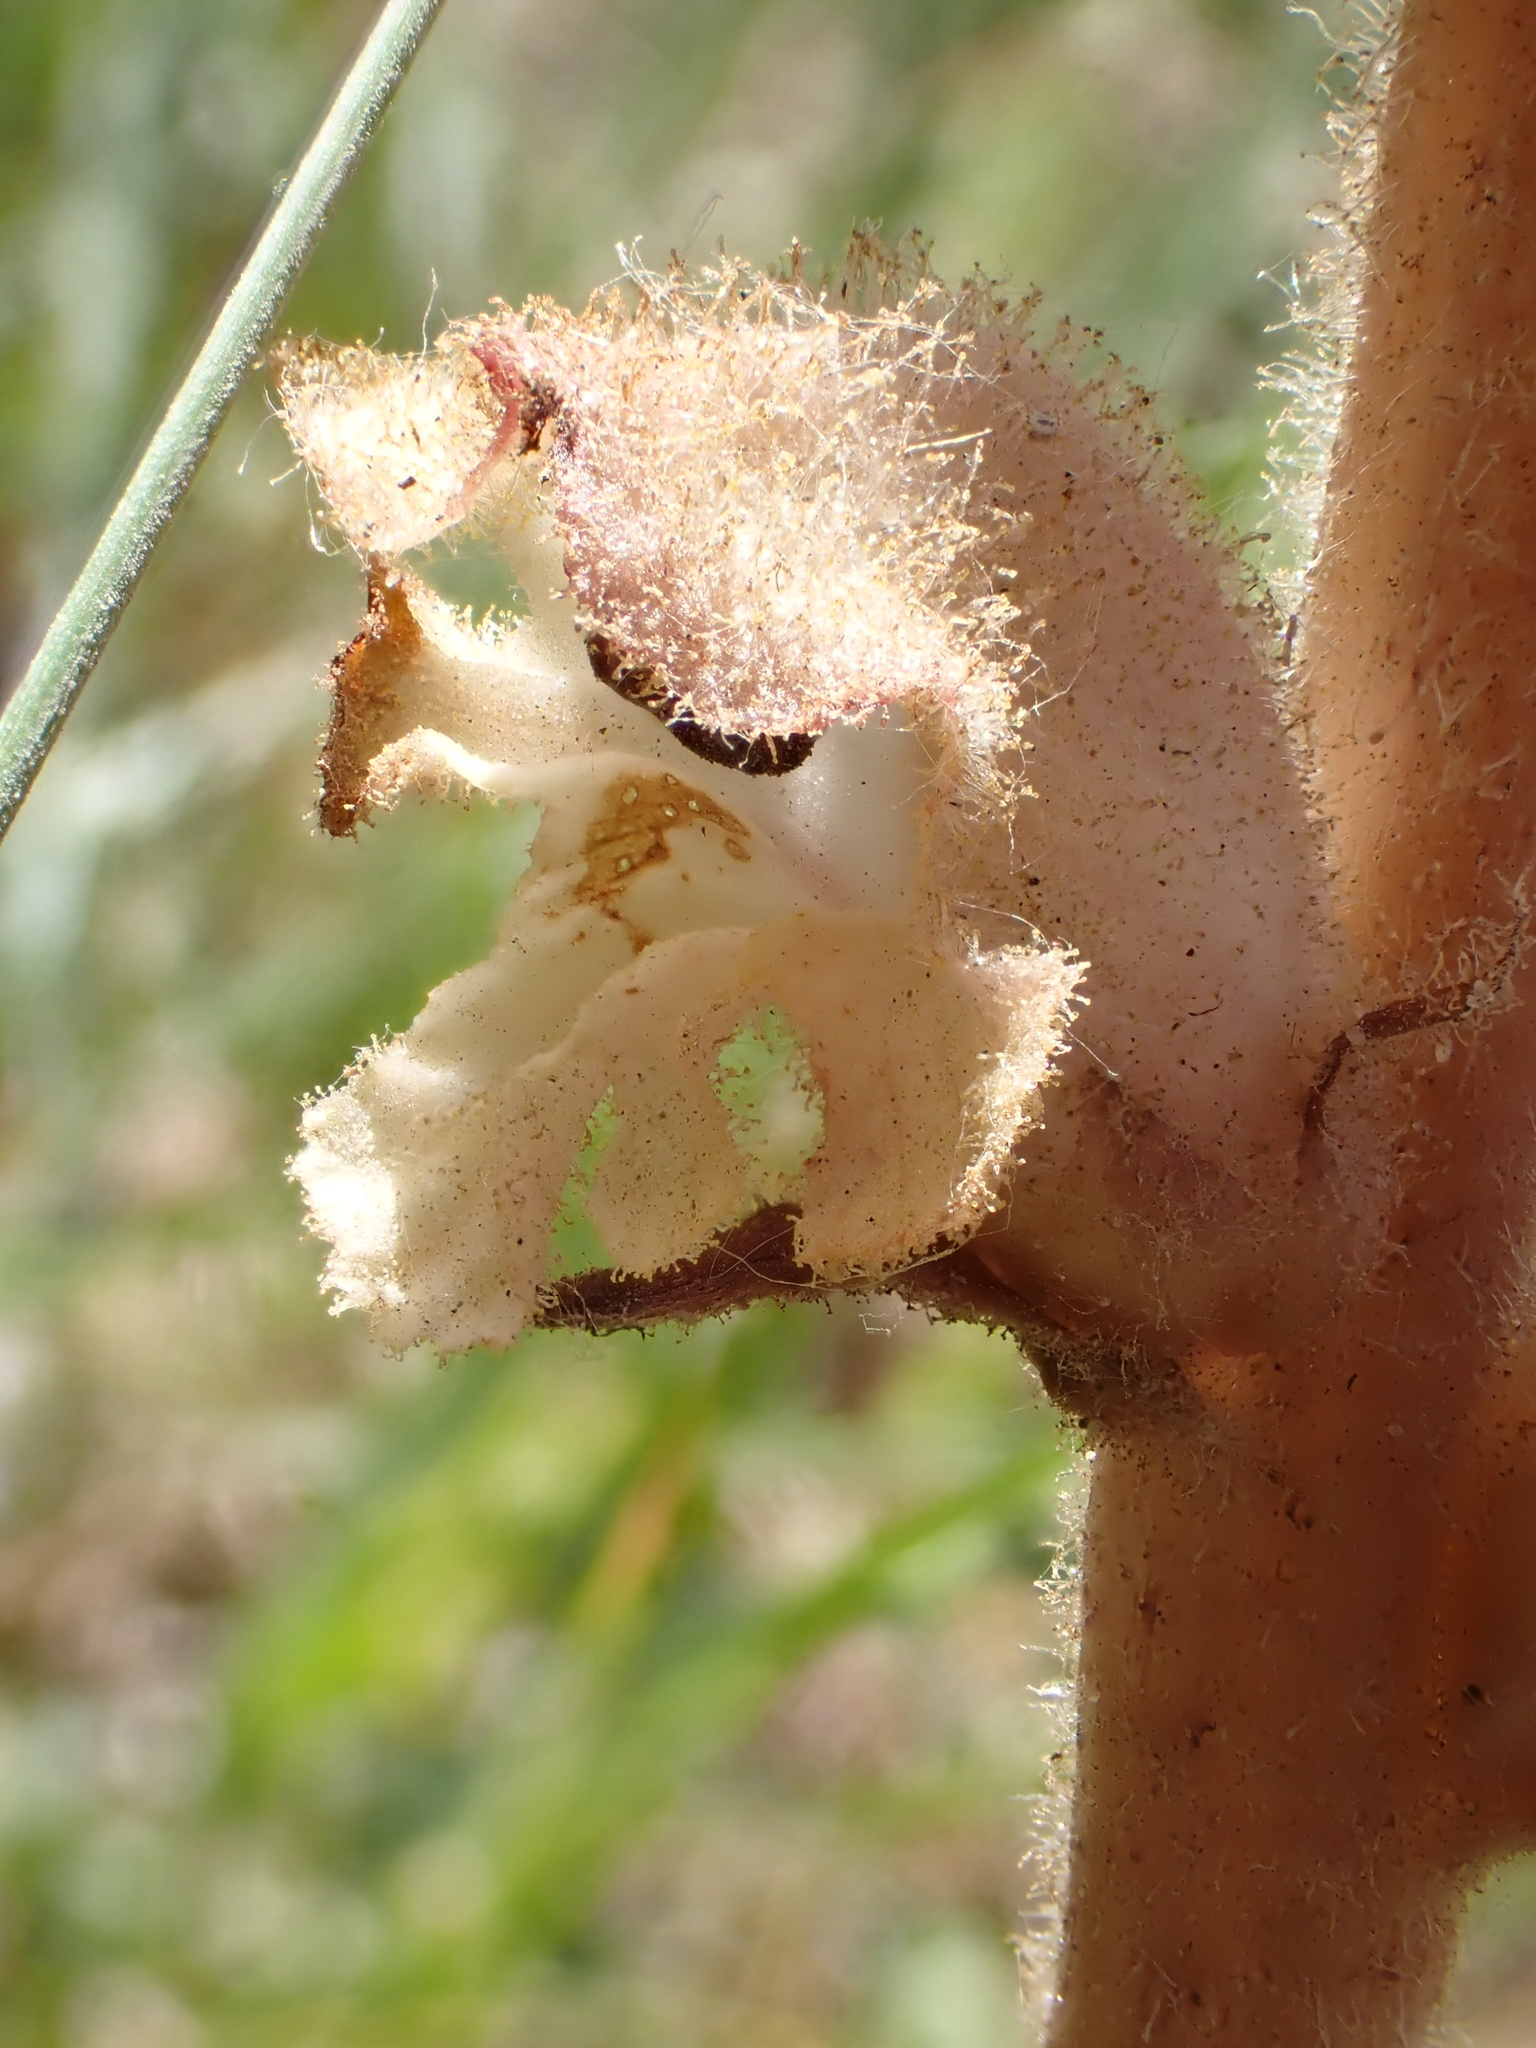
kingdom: Plantae
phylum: Tracheophyta
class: Magnoliopsida
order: Lamiales
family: Orobanchaceae
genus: Orobanche
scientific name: Orobanche caryophyllacea
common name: Bedstraw broomrape
